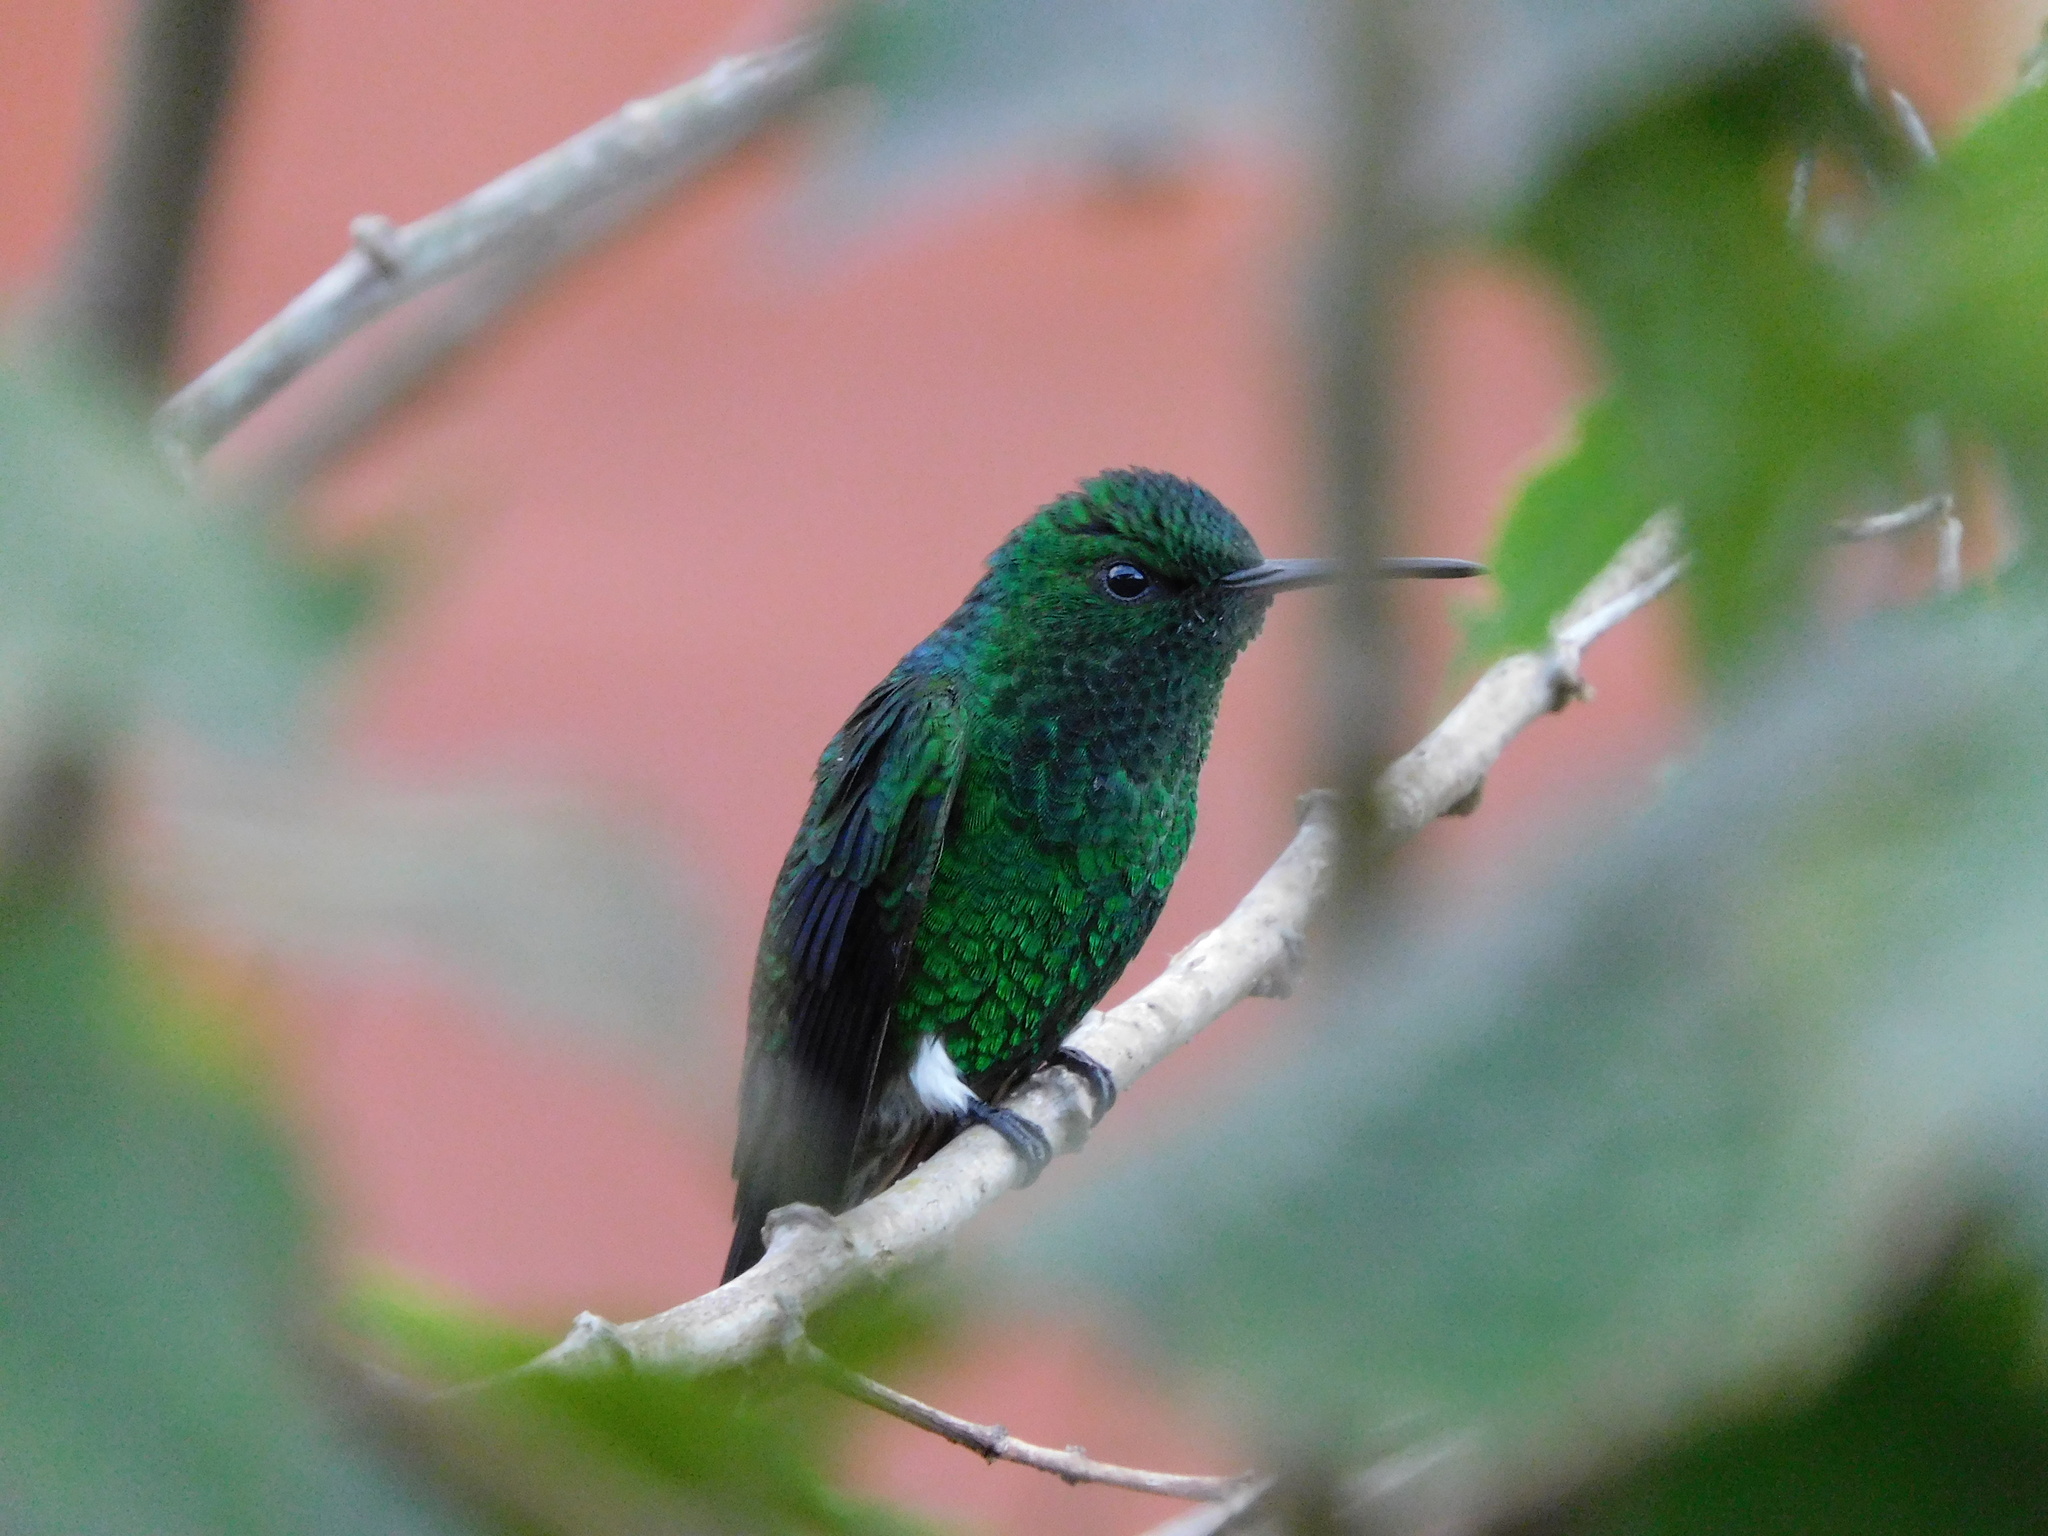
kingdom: Animalia
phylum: Chordata
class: Aves
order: Apodiformes
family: Trochilidae
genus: Saucerottia
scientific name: Saucerottia saucerottei
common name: Steely-vented hummingbird
